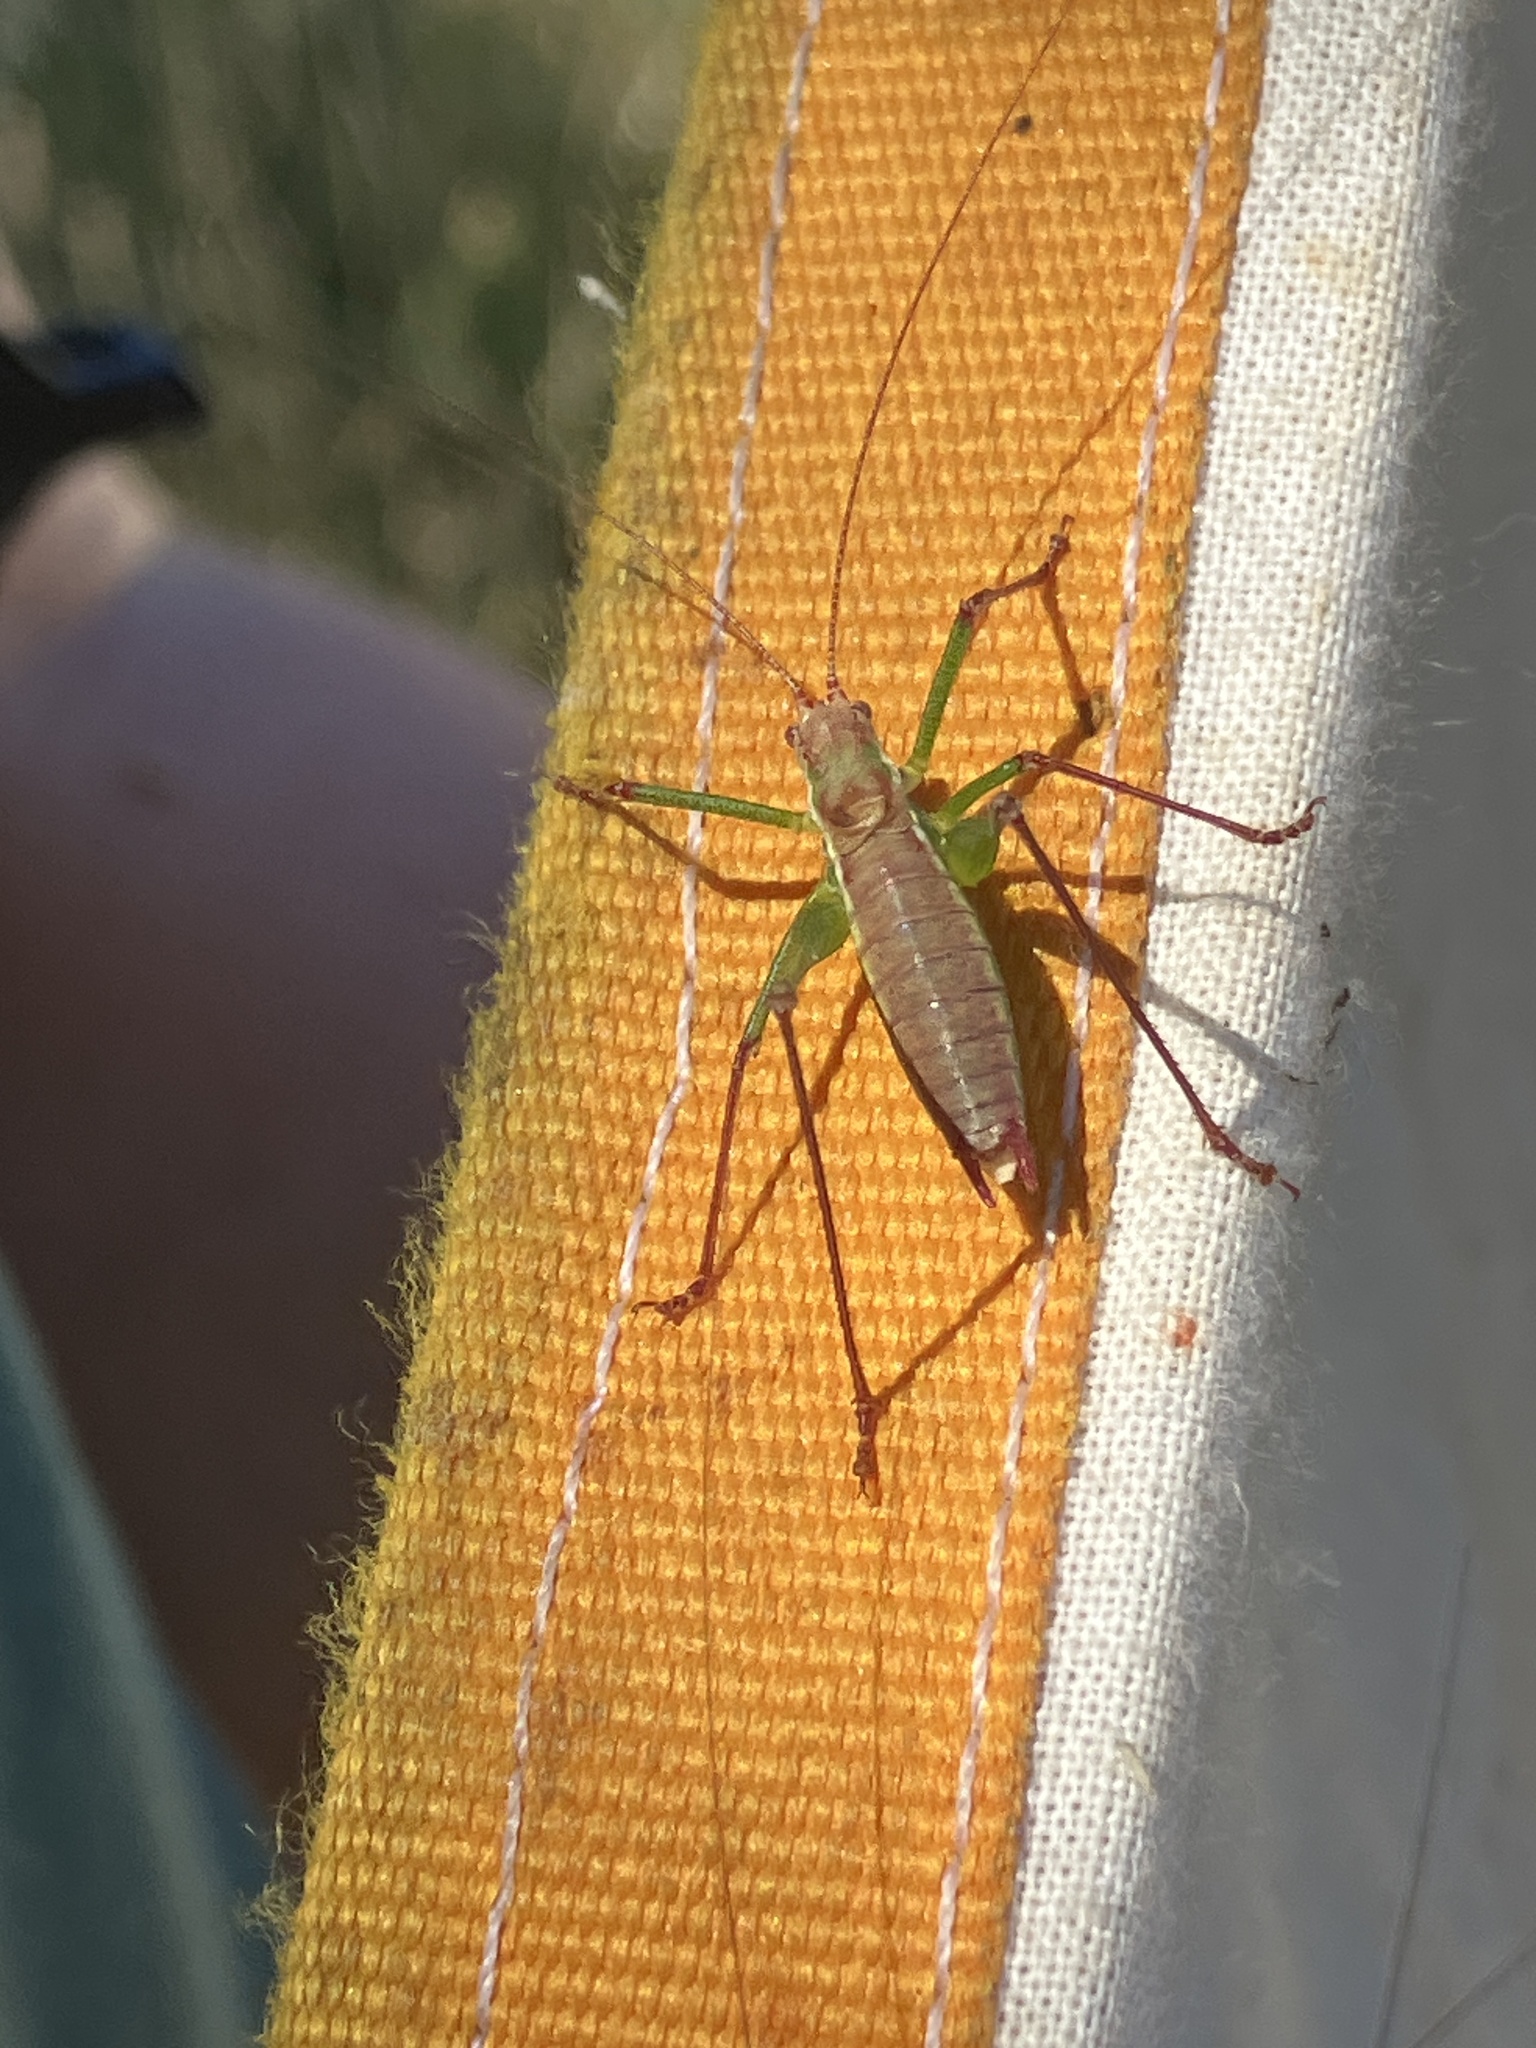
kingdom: Animalia
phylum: Arthropoda
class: Insecta
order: Orthoptera
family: Tettigoniidae
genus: Leptophyes
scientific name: Leptophyes albovittata
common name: Striped bush-cricket
